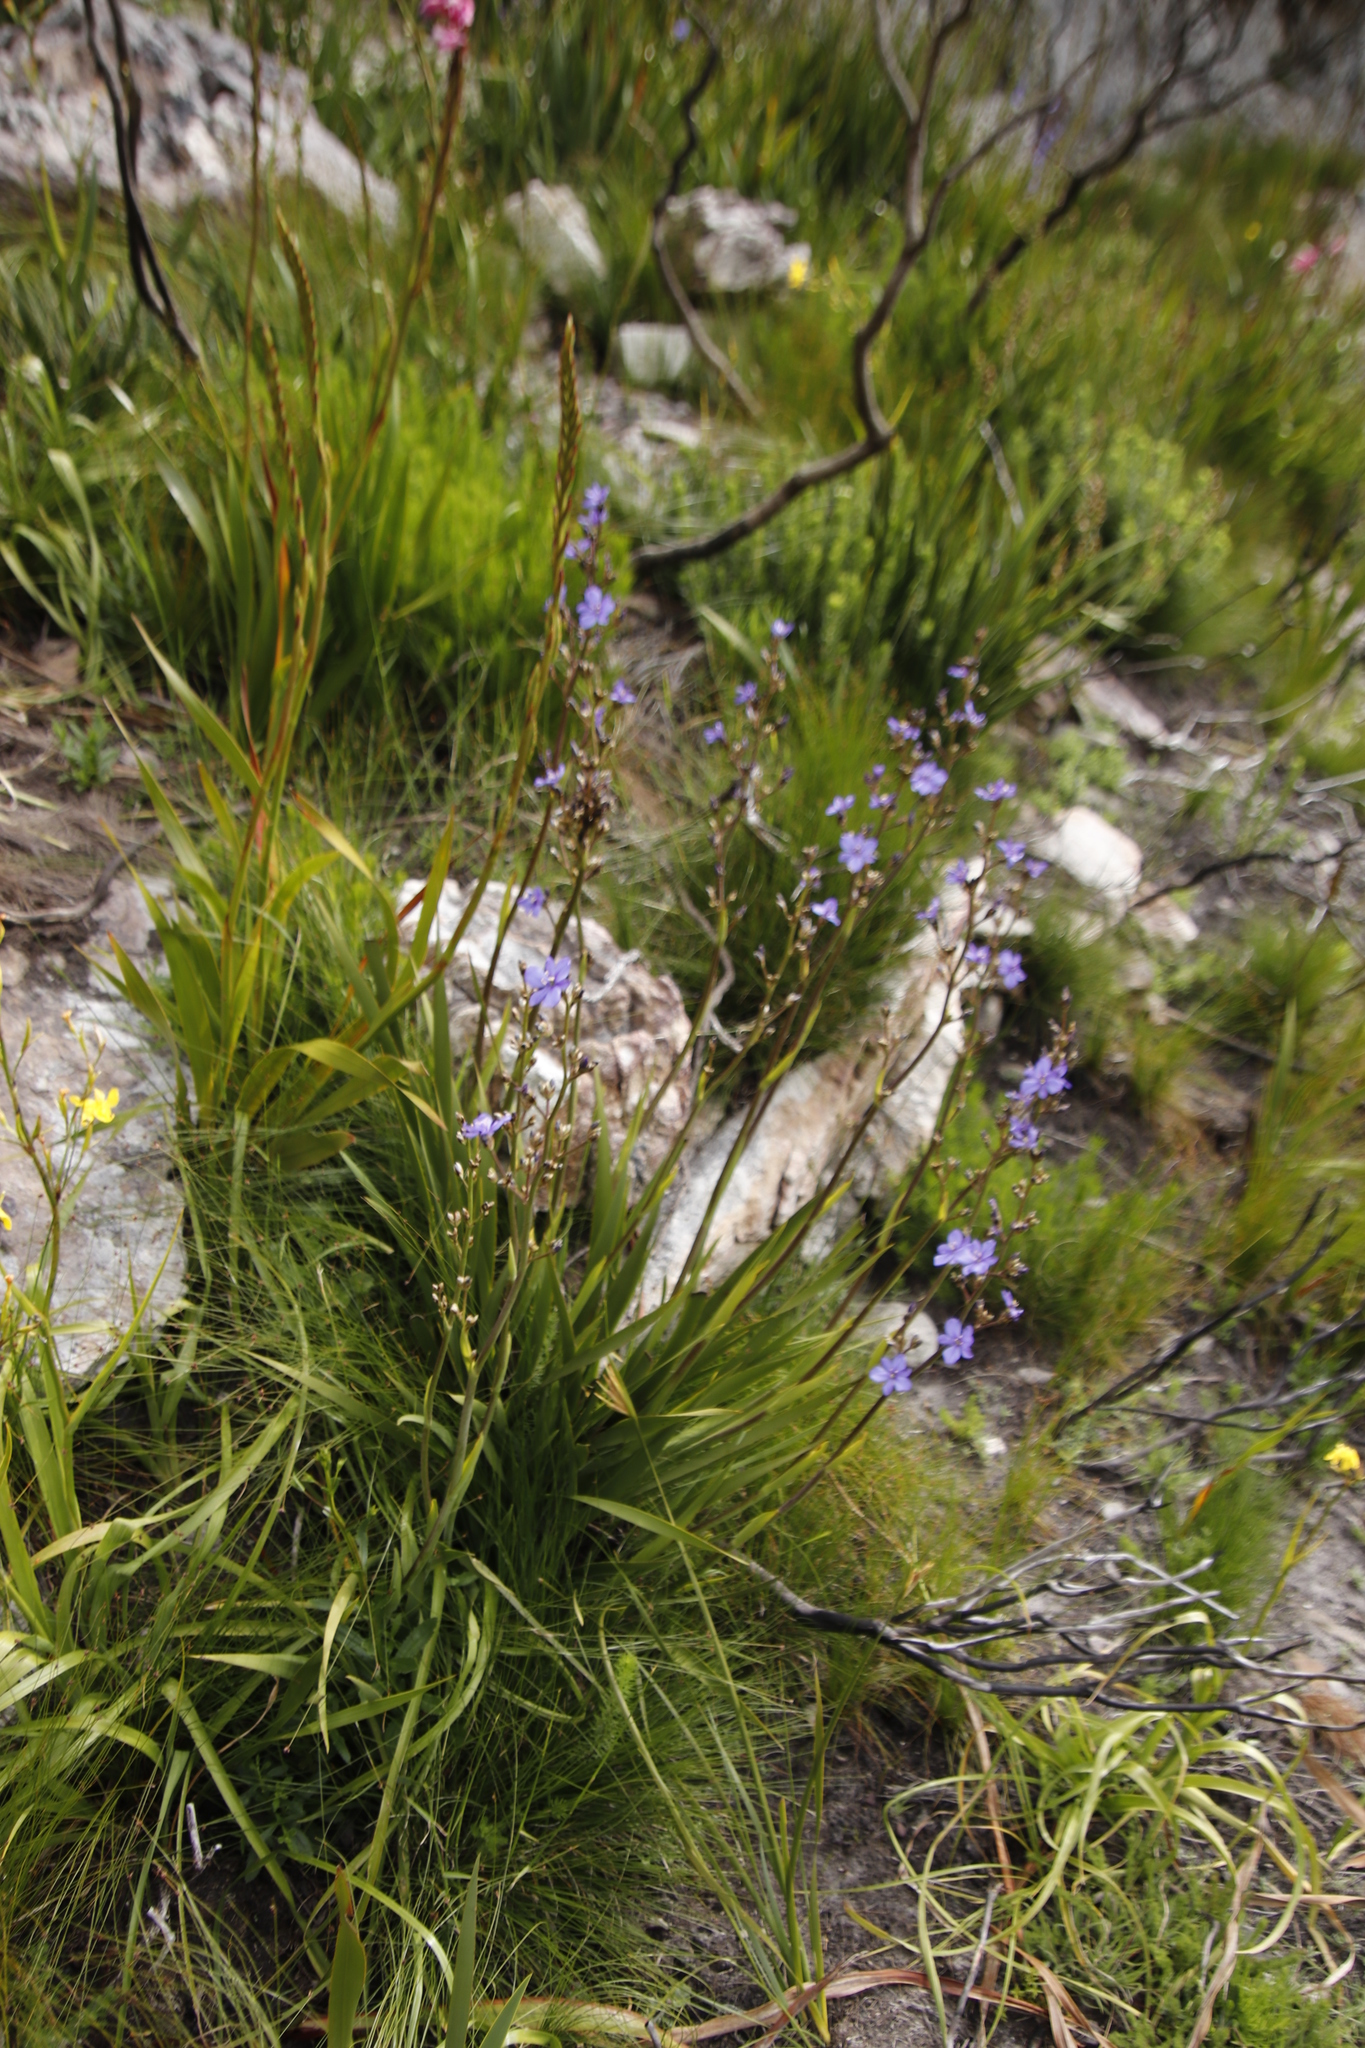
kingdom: Plantae
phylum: Tracheophyta
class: Liliopsida
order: Asparagales
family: Iridaceae
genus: Aristea
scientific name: Aristea bakeri
